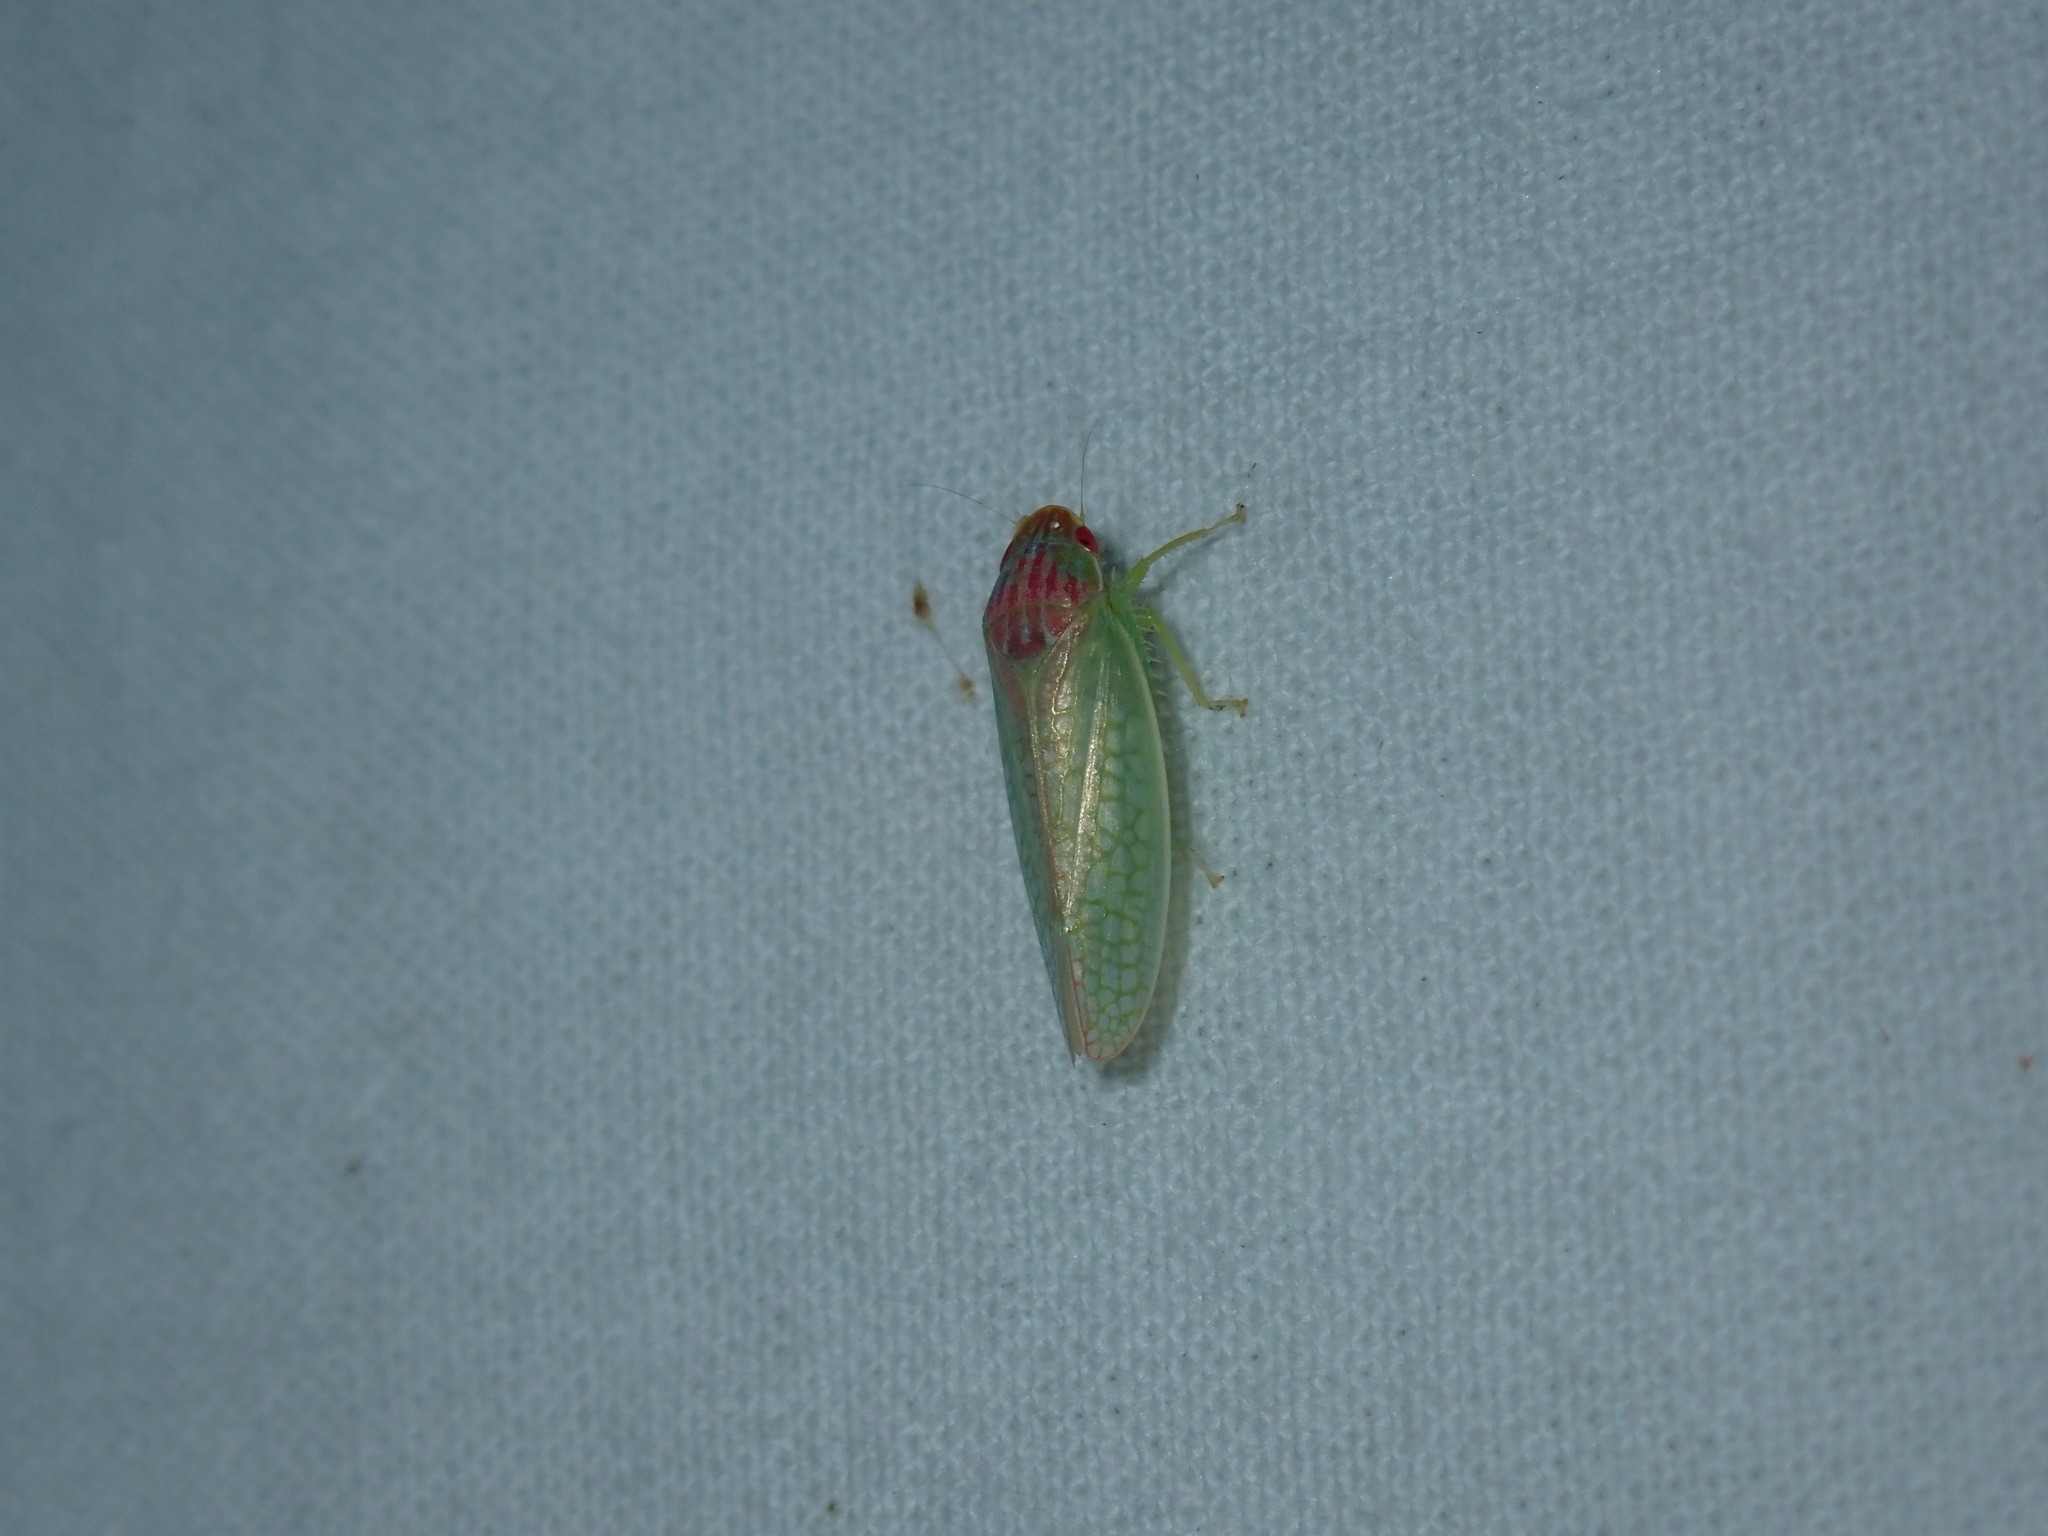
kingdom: Animalia
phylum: Arthropoda
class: Insecta
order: Hemiptera
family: Cicadellidae
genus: Gyponana
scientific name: Gyponana octolineata
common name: Eight-lined leafhopper
